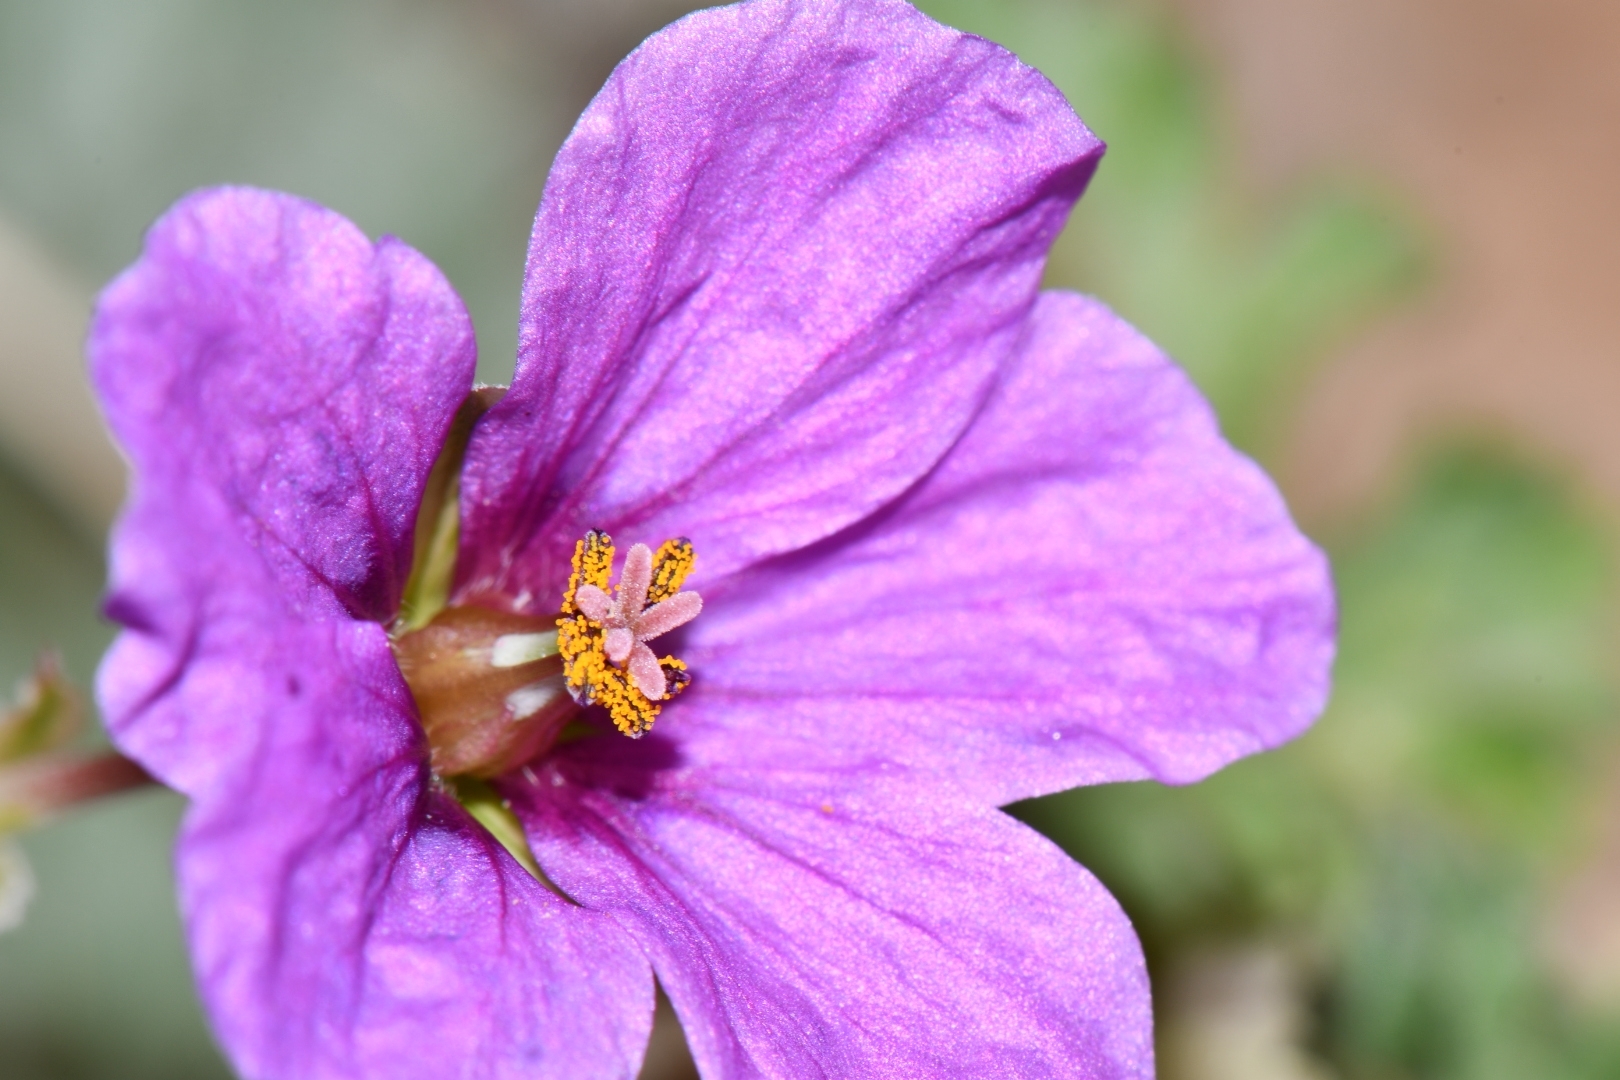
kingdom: Plantae
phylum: Tracheophyta
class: Magnoliopsida
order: Geraniales
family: Geraniaceae
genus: Erodium
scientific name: Erodium texanum
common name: Texas stork's-bill
